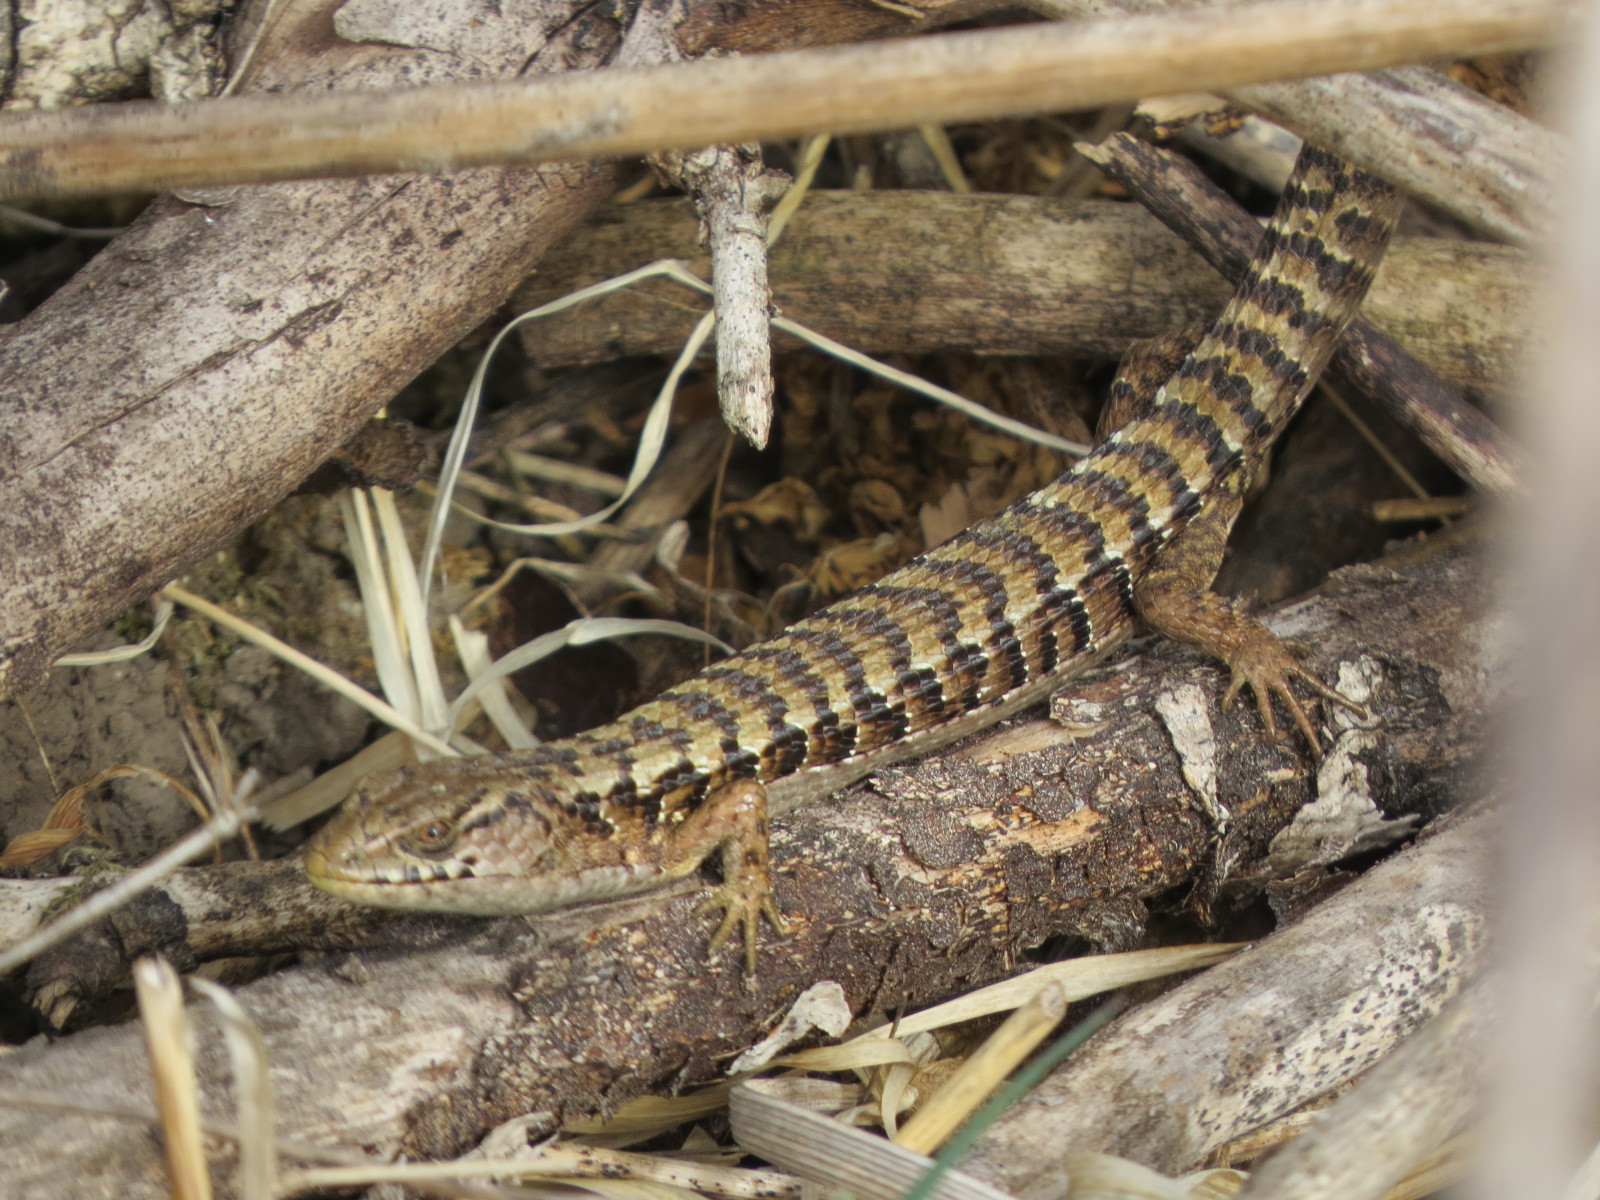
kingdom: Animalia
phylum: Chordata
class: Squamata
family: Anguidae
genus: Elgaria
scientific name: Elgaria coerulea
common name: Northern alligator lizard
